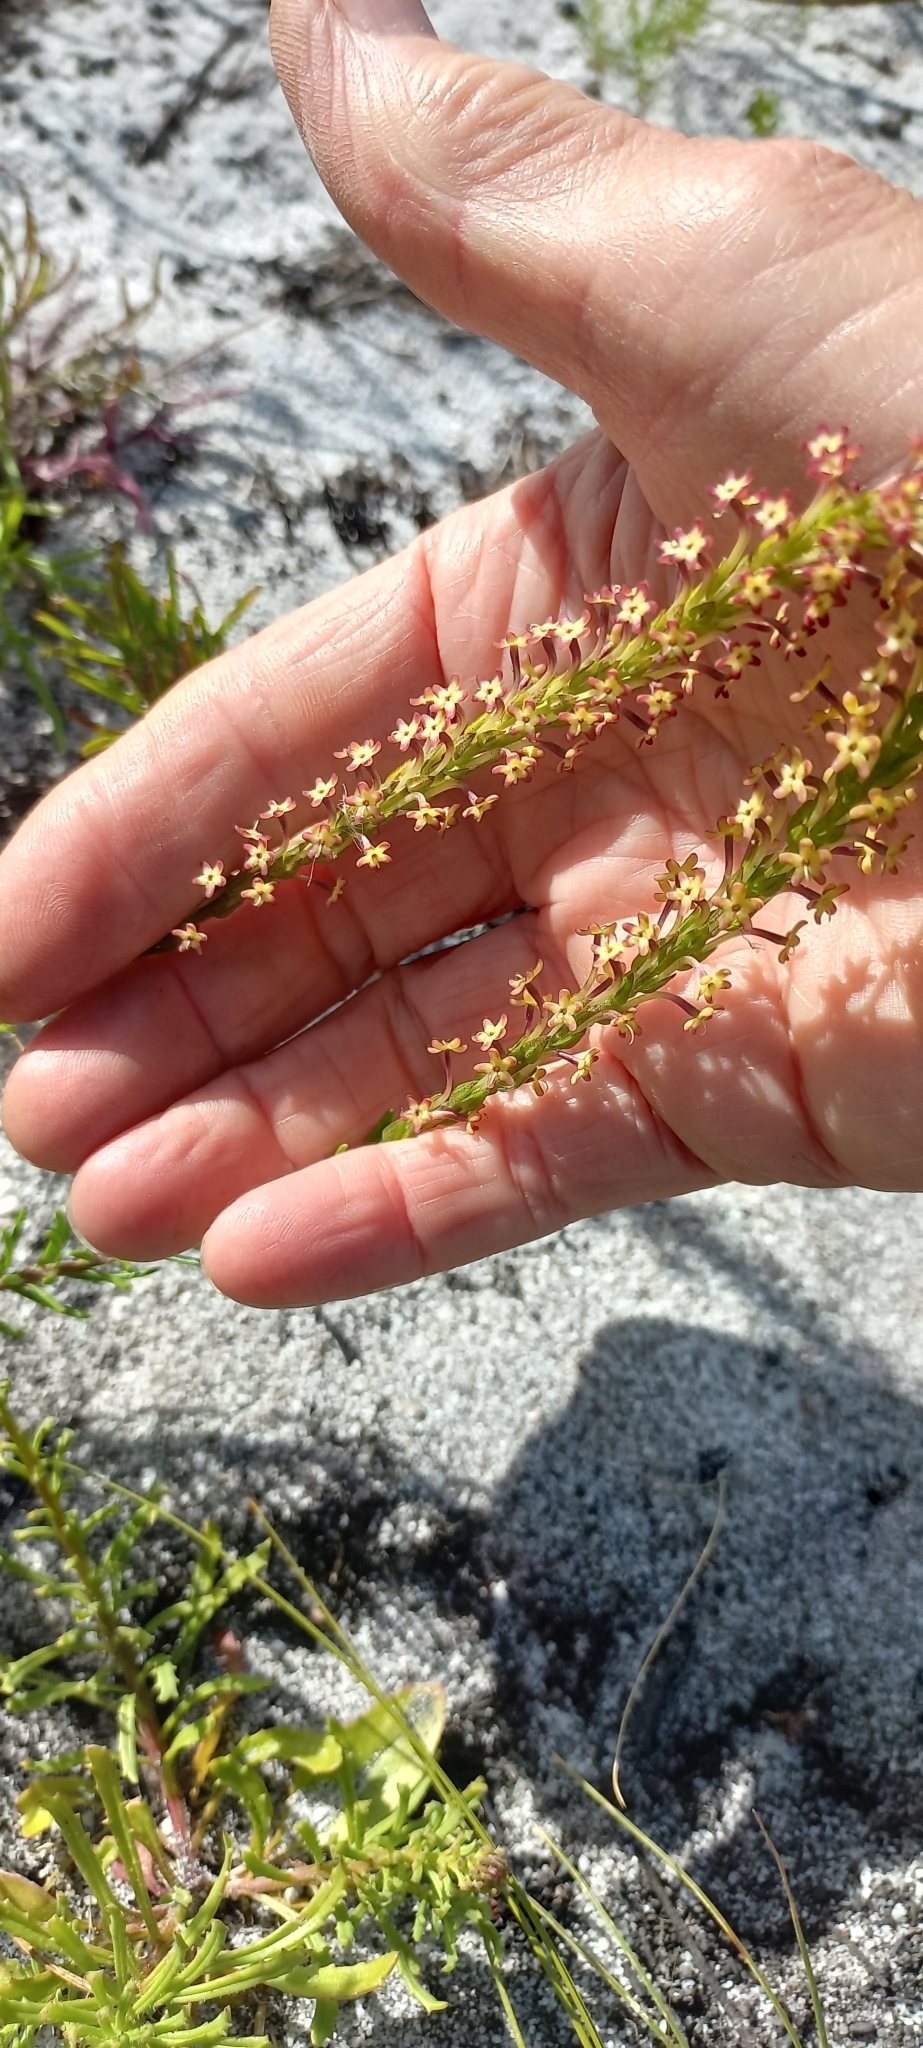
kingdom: Plantae
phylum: Tracheophyta
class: Magnoliopsida
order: Lamiales
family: Scrophulariaceae
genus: Microdon
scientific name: Microdon dubius
